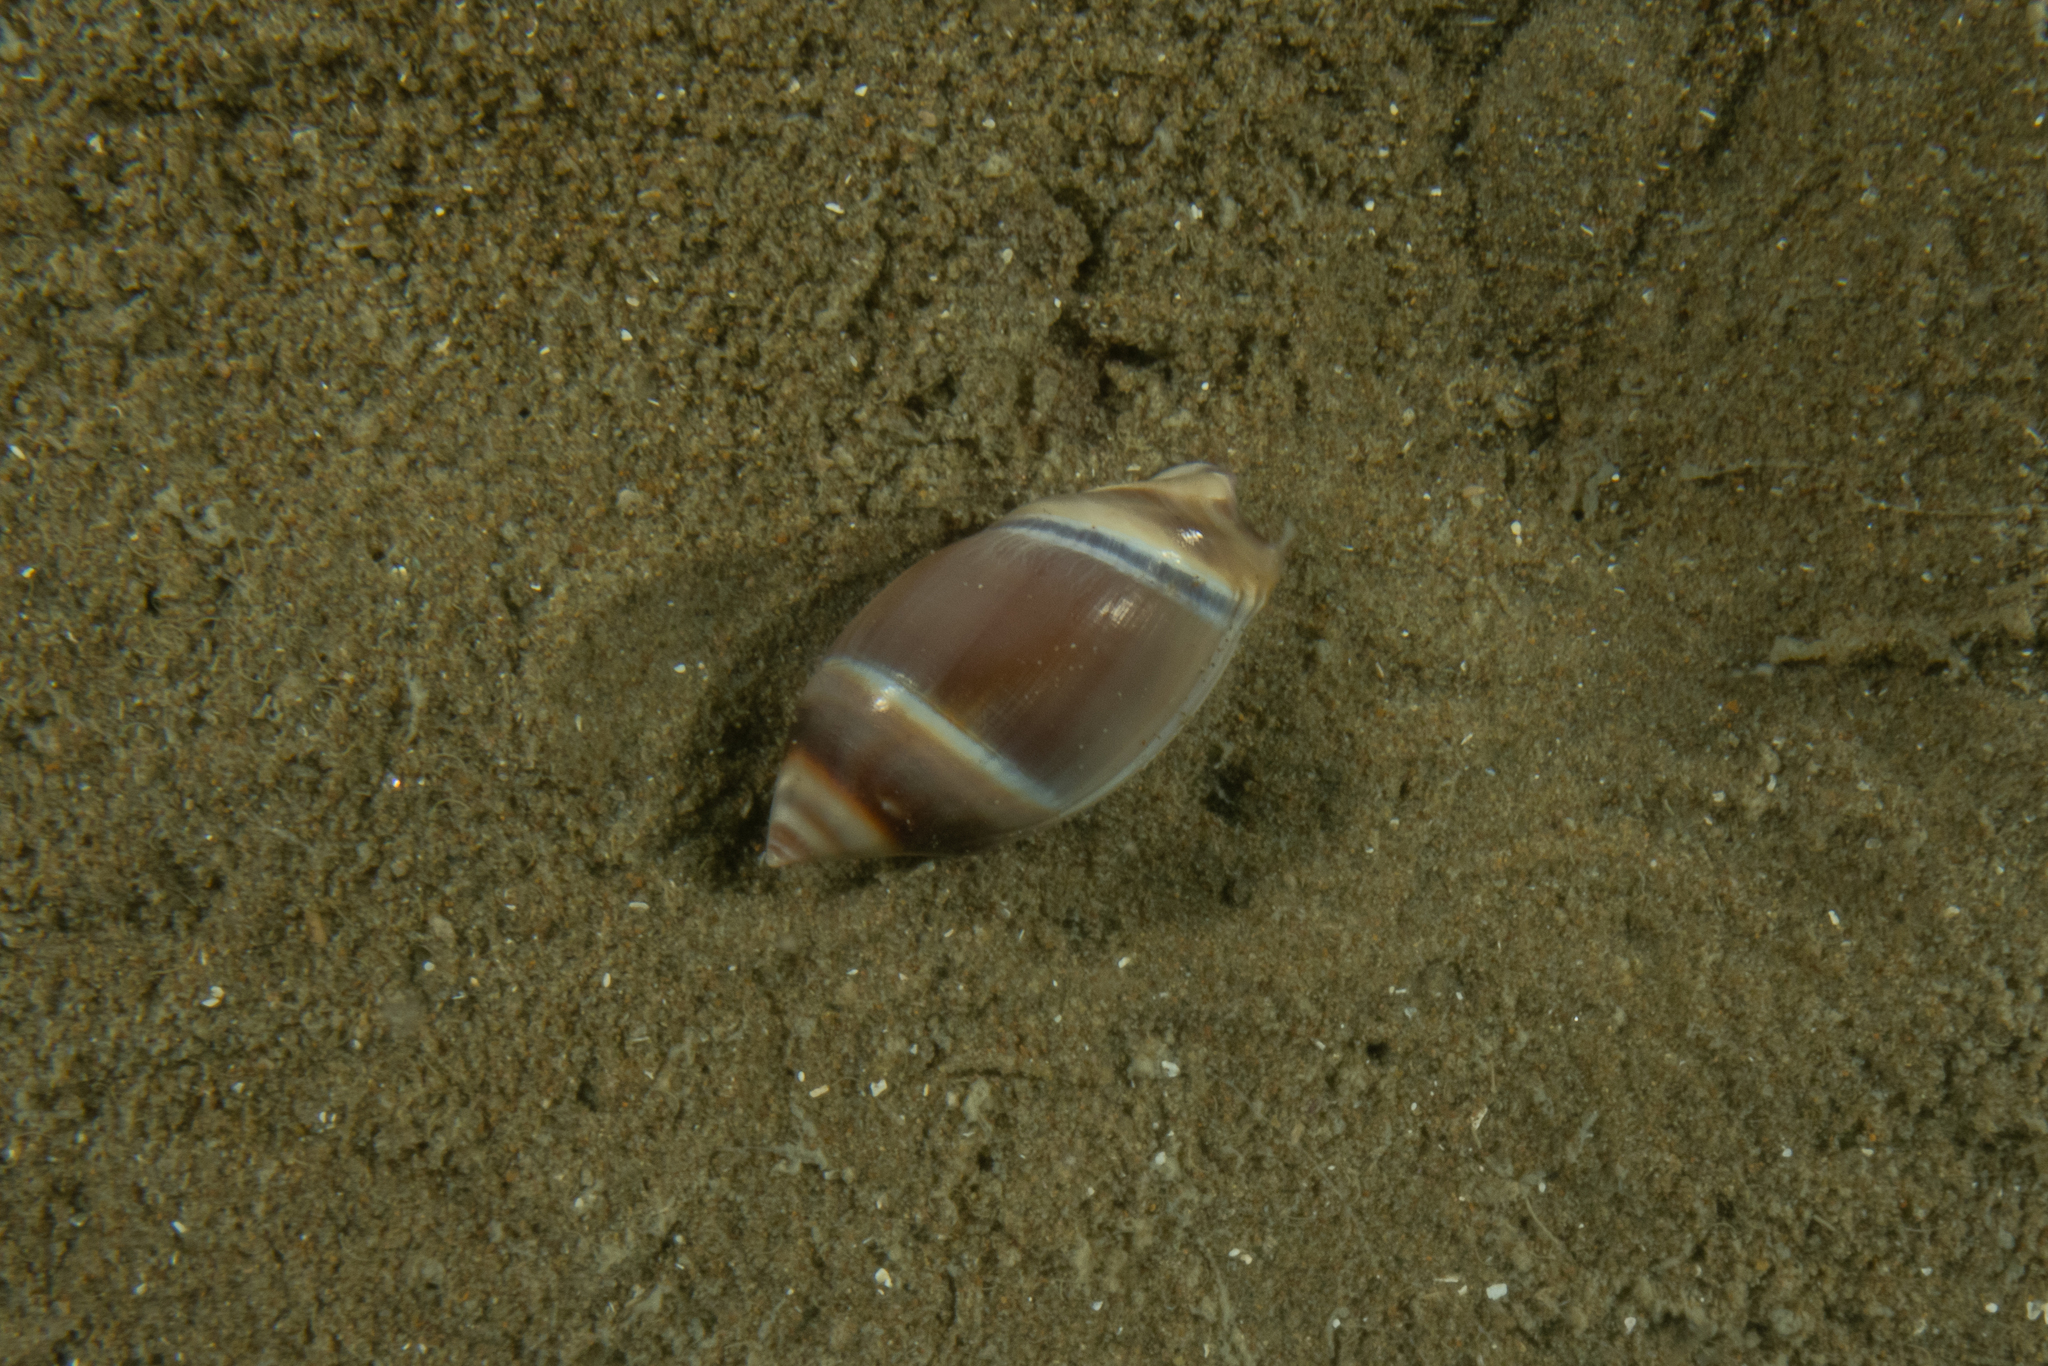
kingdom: Animalia
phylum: Mollusca
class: Gastropoda
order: Neogastropoda
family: Ancillariidae
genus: Amalda
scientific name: Amalda australis
